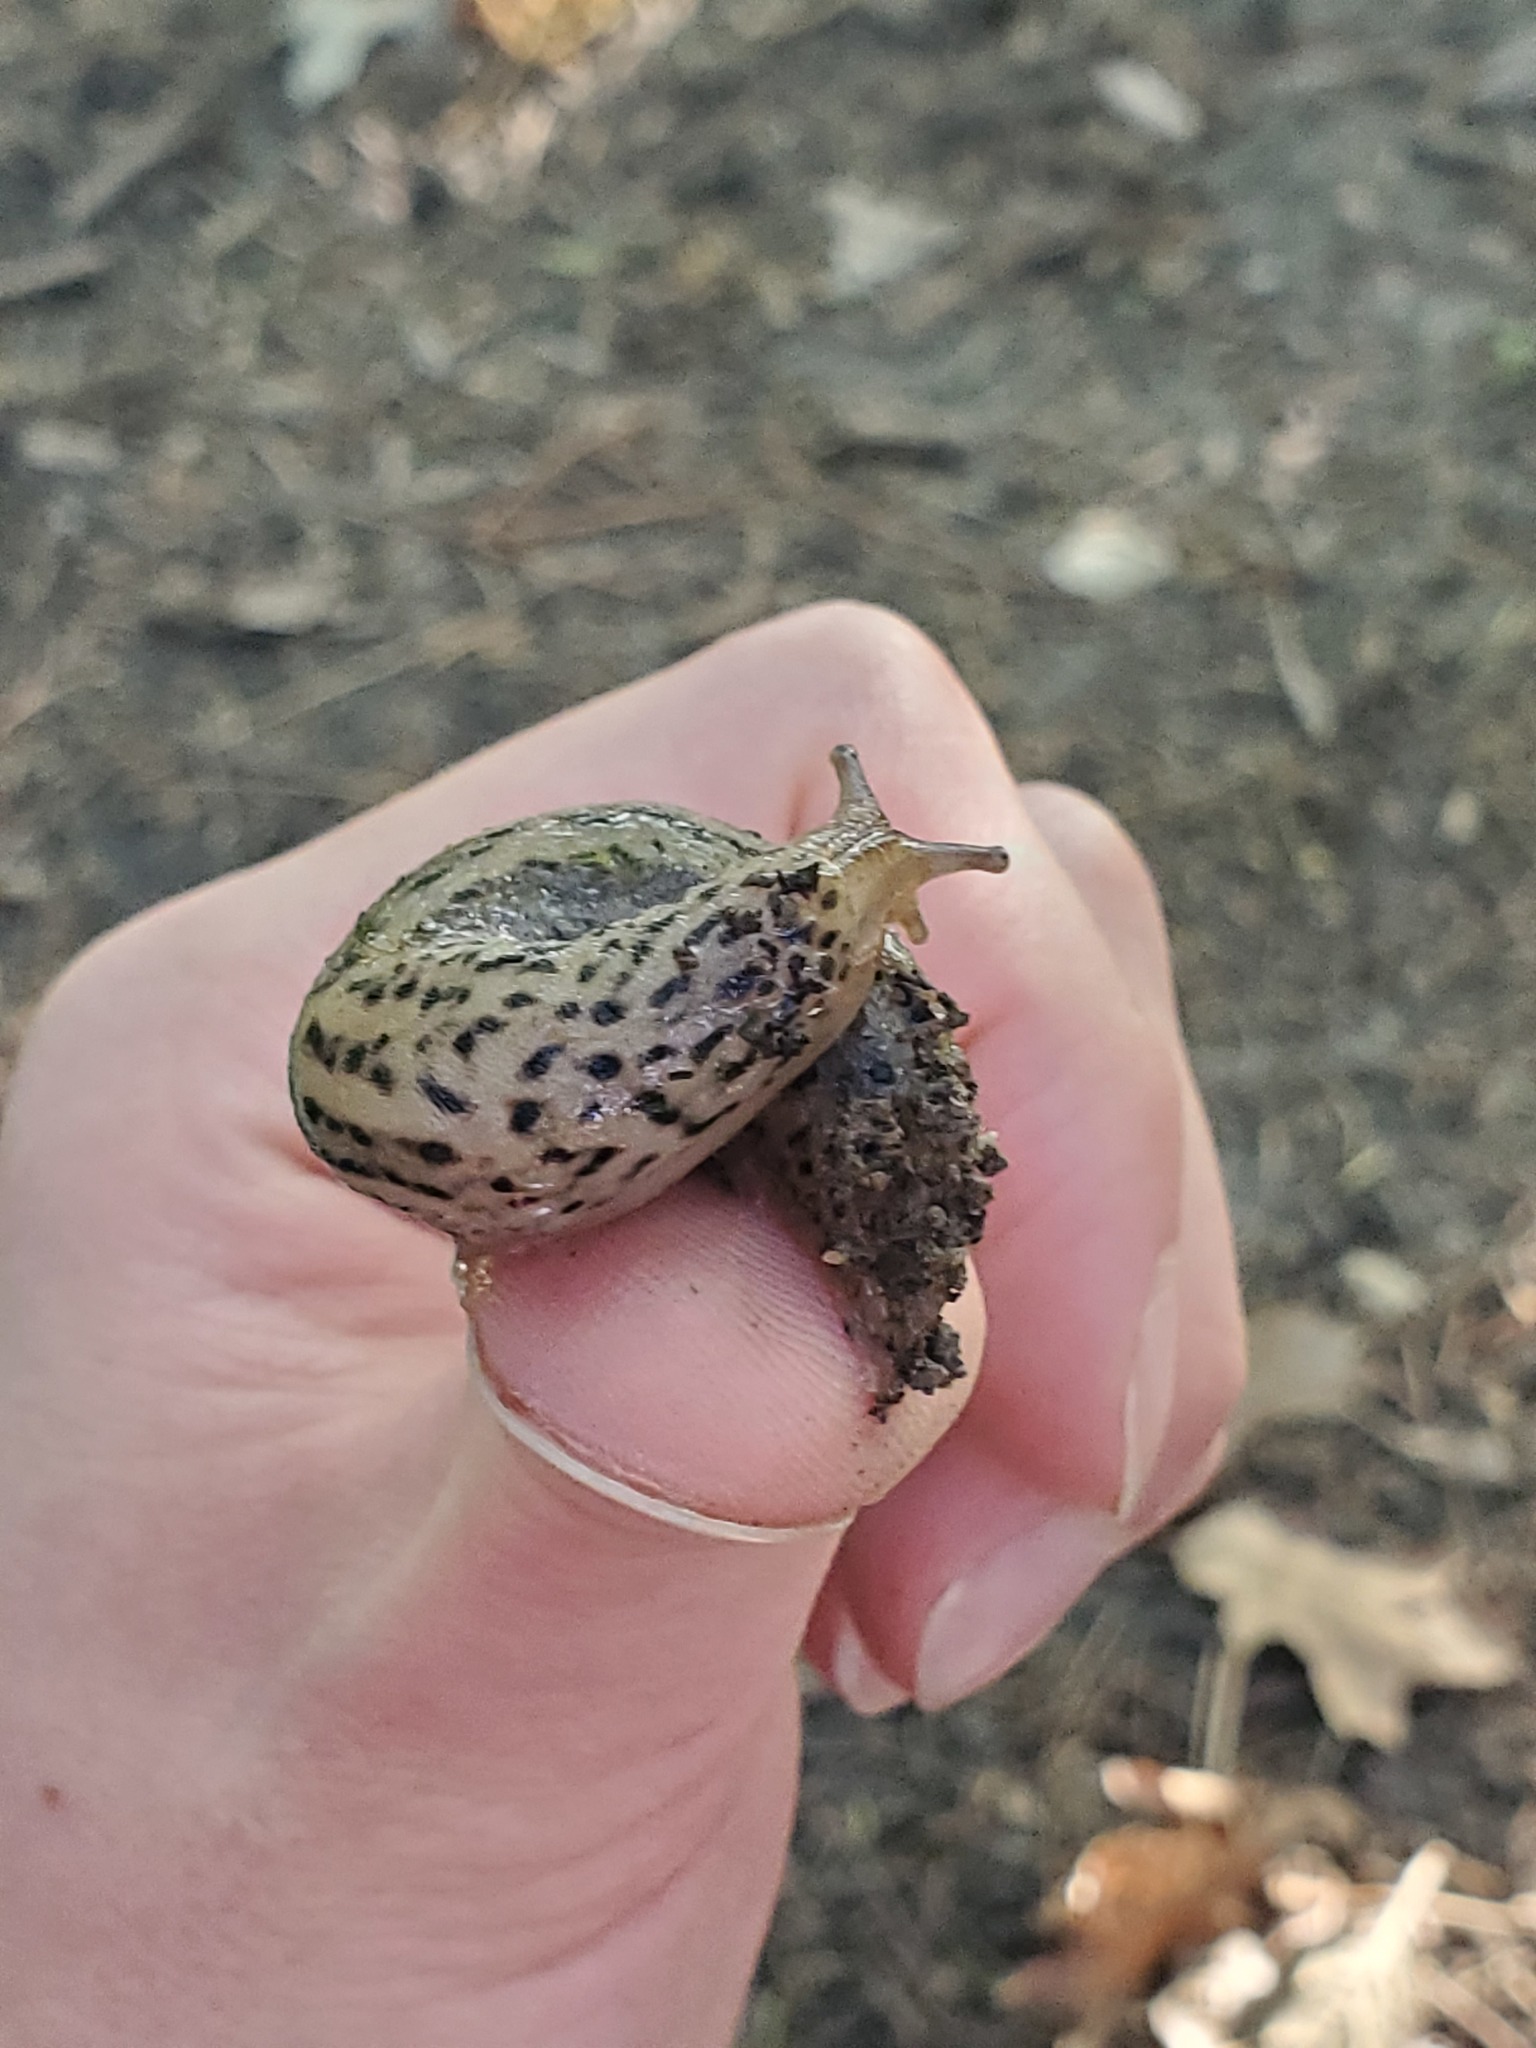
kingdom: Animalia
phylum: Mollusca
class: Gastropoda
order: Stylommatophora
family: Limacidae
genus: Limax
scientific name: Limax maximus
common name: Great grey slug
